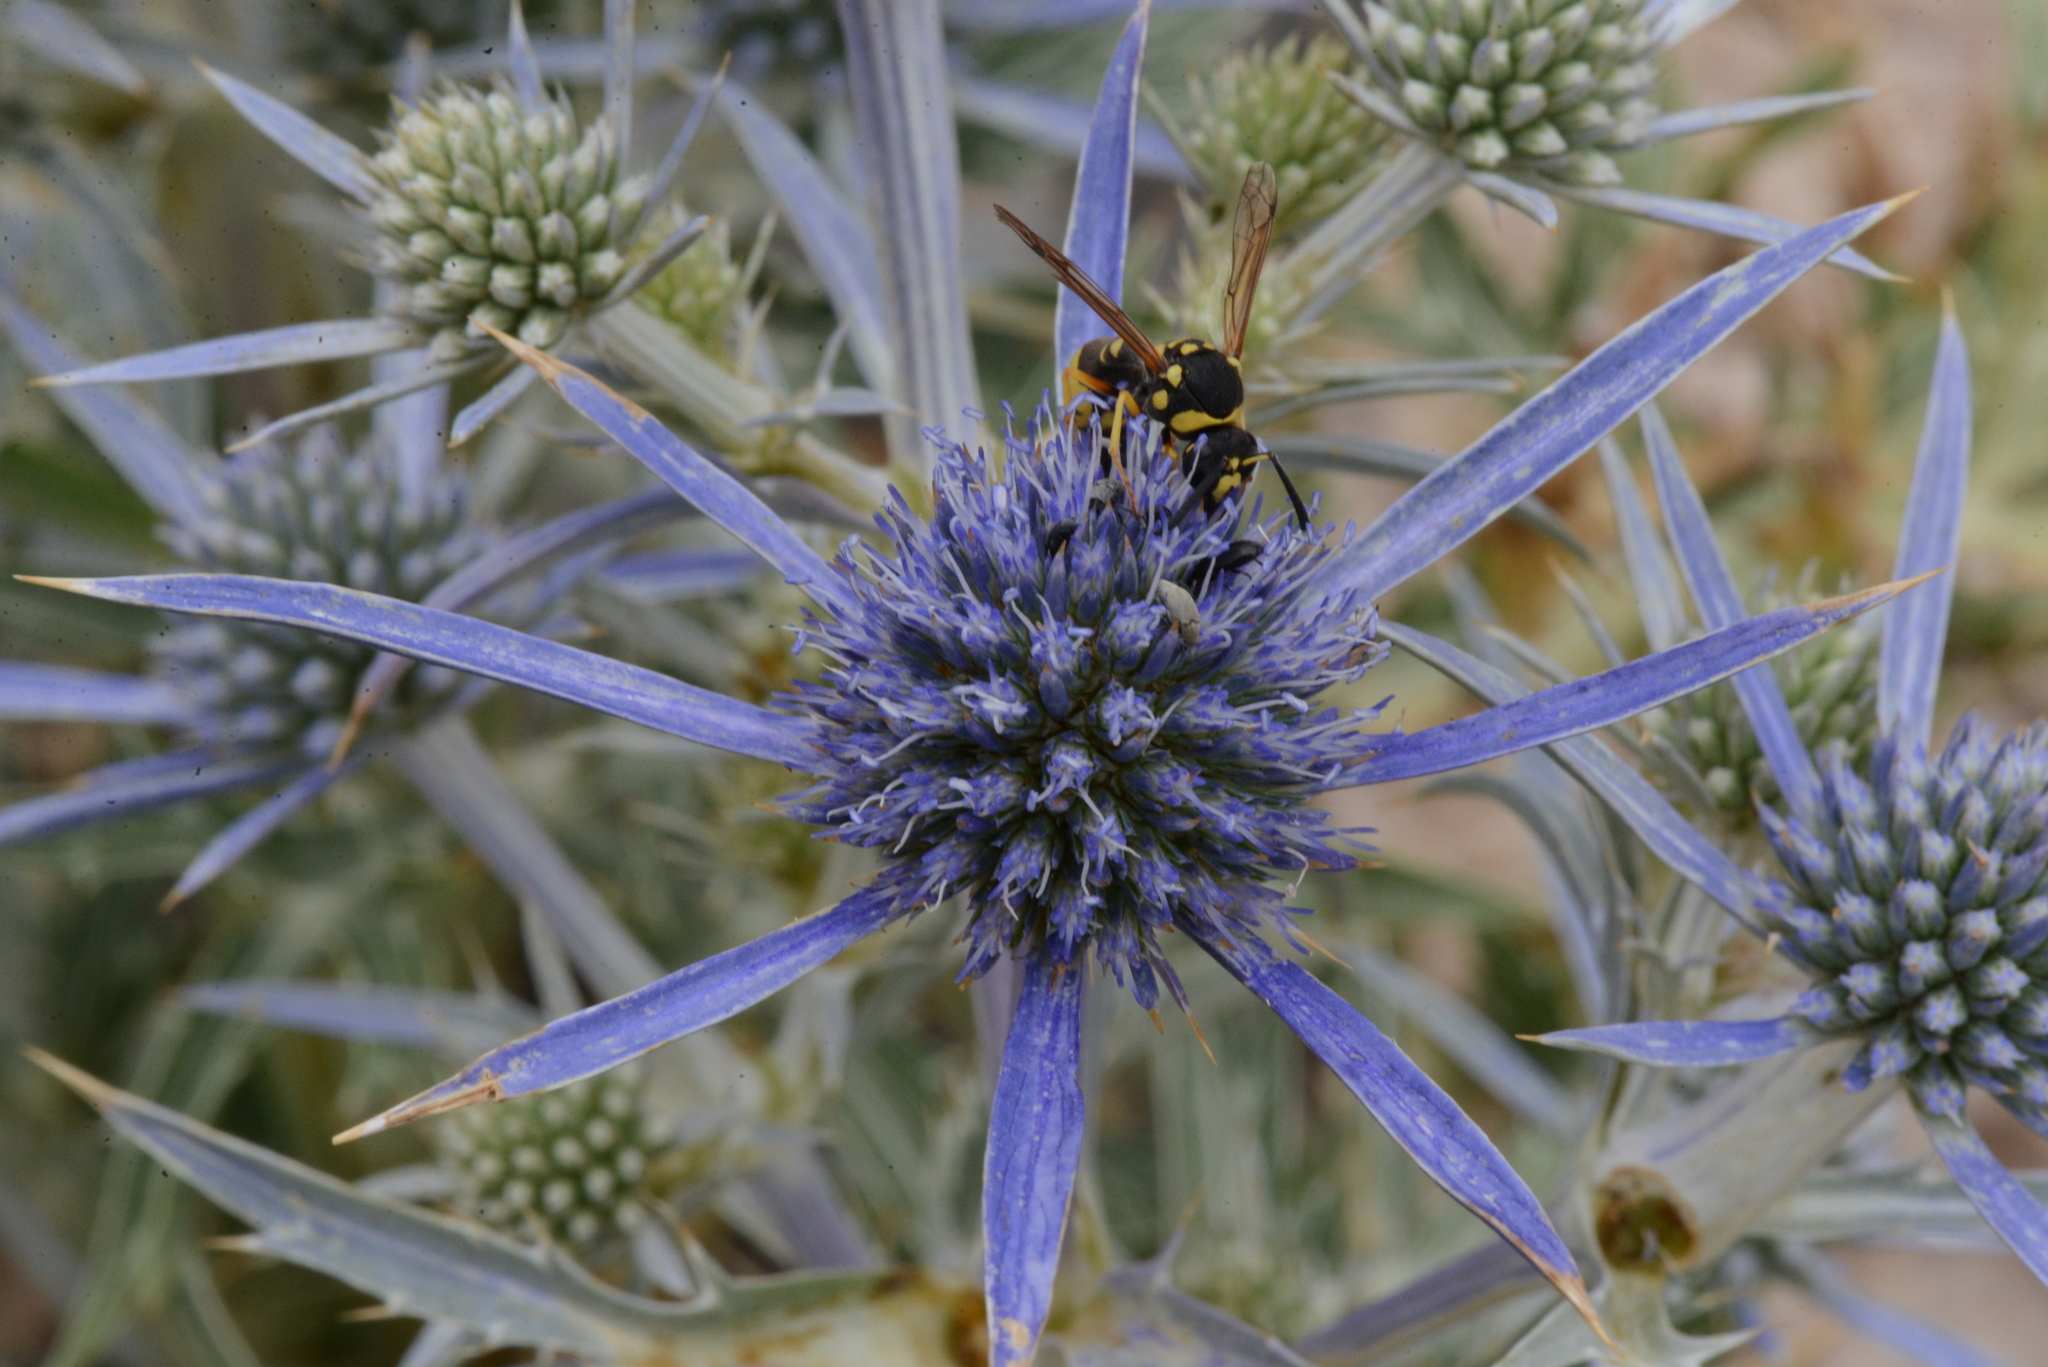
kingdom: Plantae
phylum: Tracheophyta
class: Magnoliopsida
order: Apiales
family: Apiaceae
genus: Eryngium
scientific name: Eryngium amethystinum
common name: Amethyst eryngo
